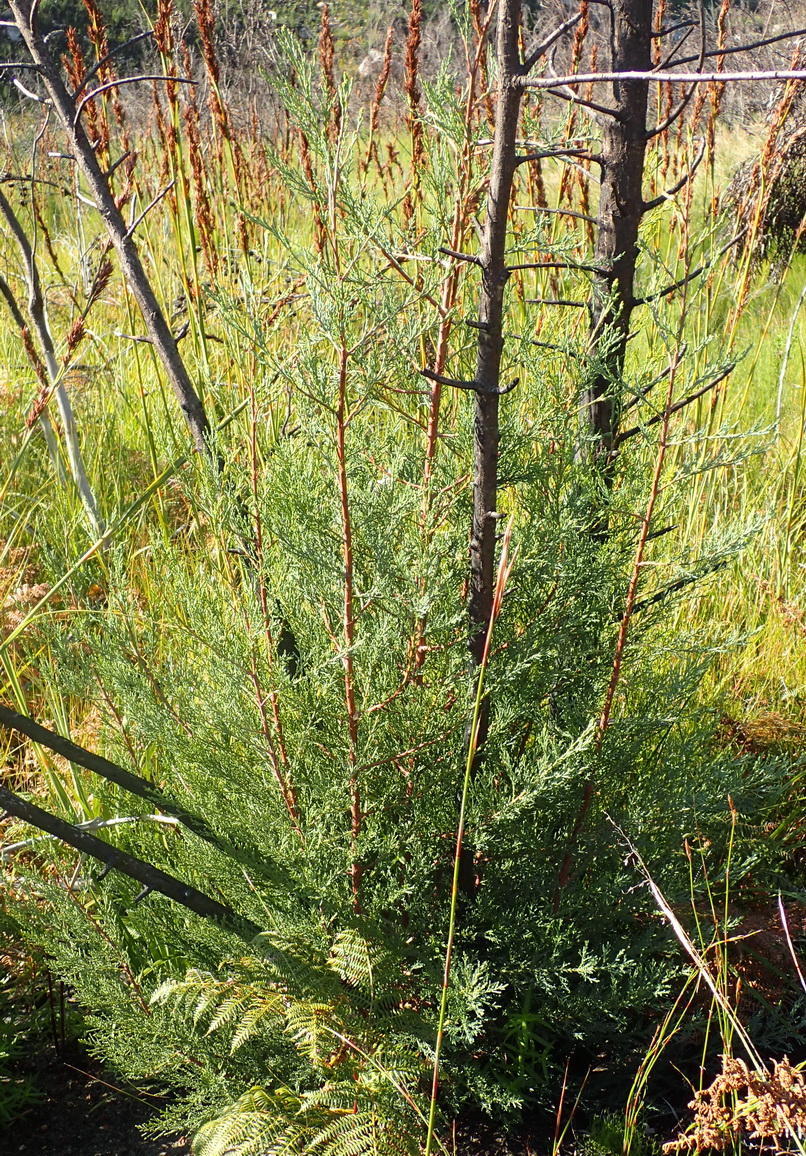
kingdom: Plantae
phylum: Tracheophyta
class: Pinopsida
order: Pinales
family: Cupressaceae
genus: Widdringtonia
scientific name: Widdringtonia nodiflora
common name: Cape cypress
